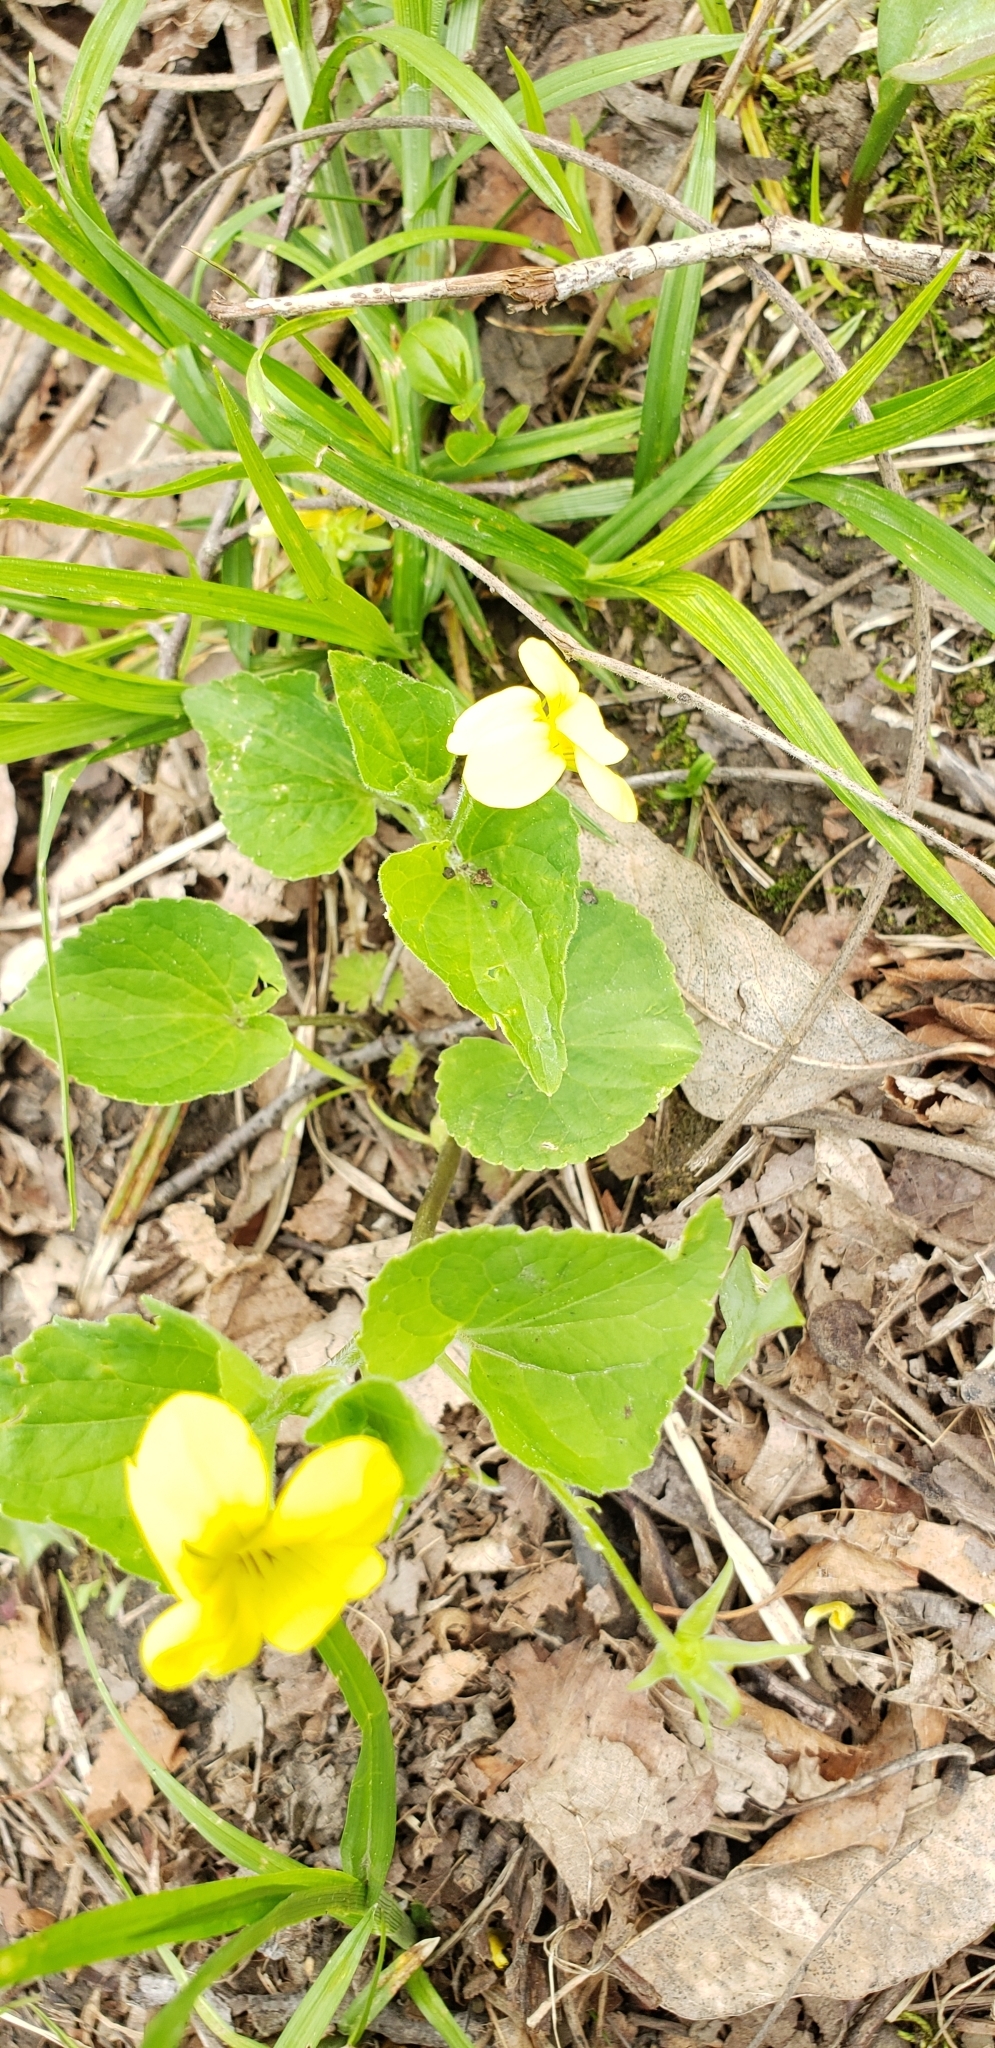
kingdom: Plantae
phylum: Tracheophyta
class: Magnoliopsida
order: Malpighiales
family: Violaceae
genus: Viola
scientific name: Viola eriocarpa
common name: Smooth yellow violet
